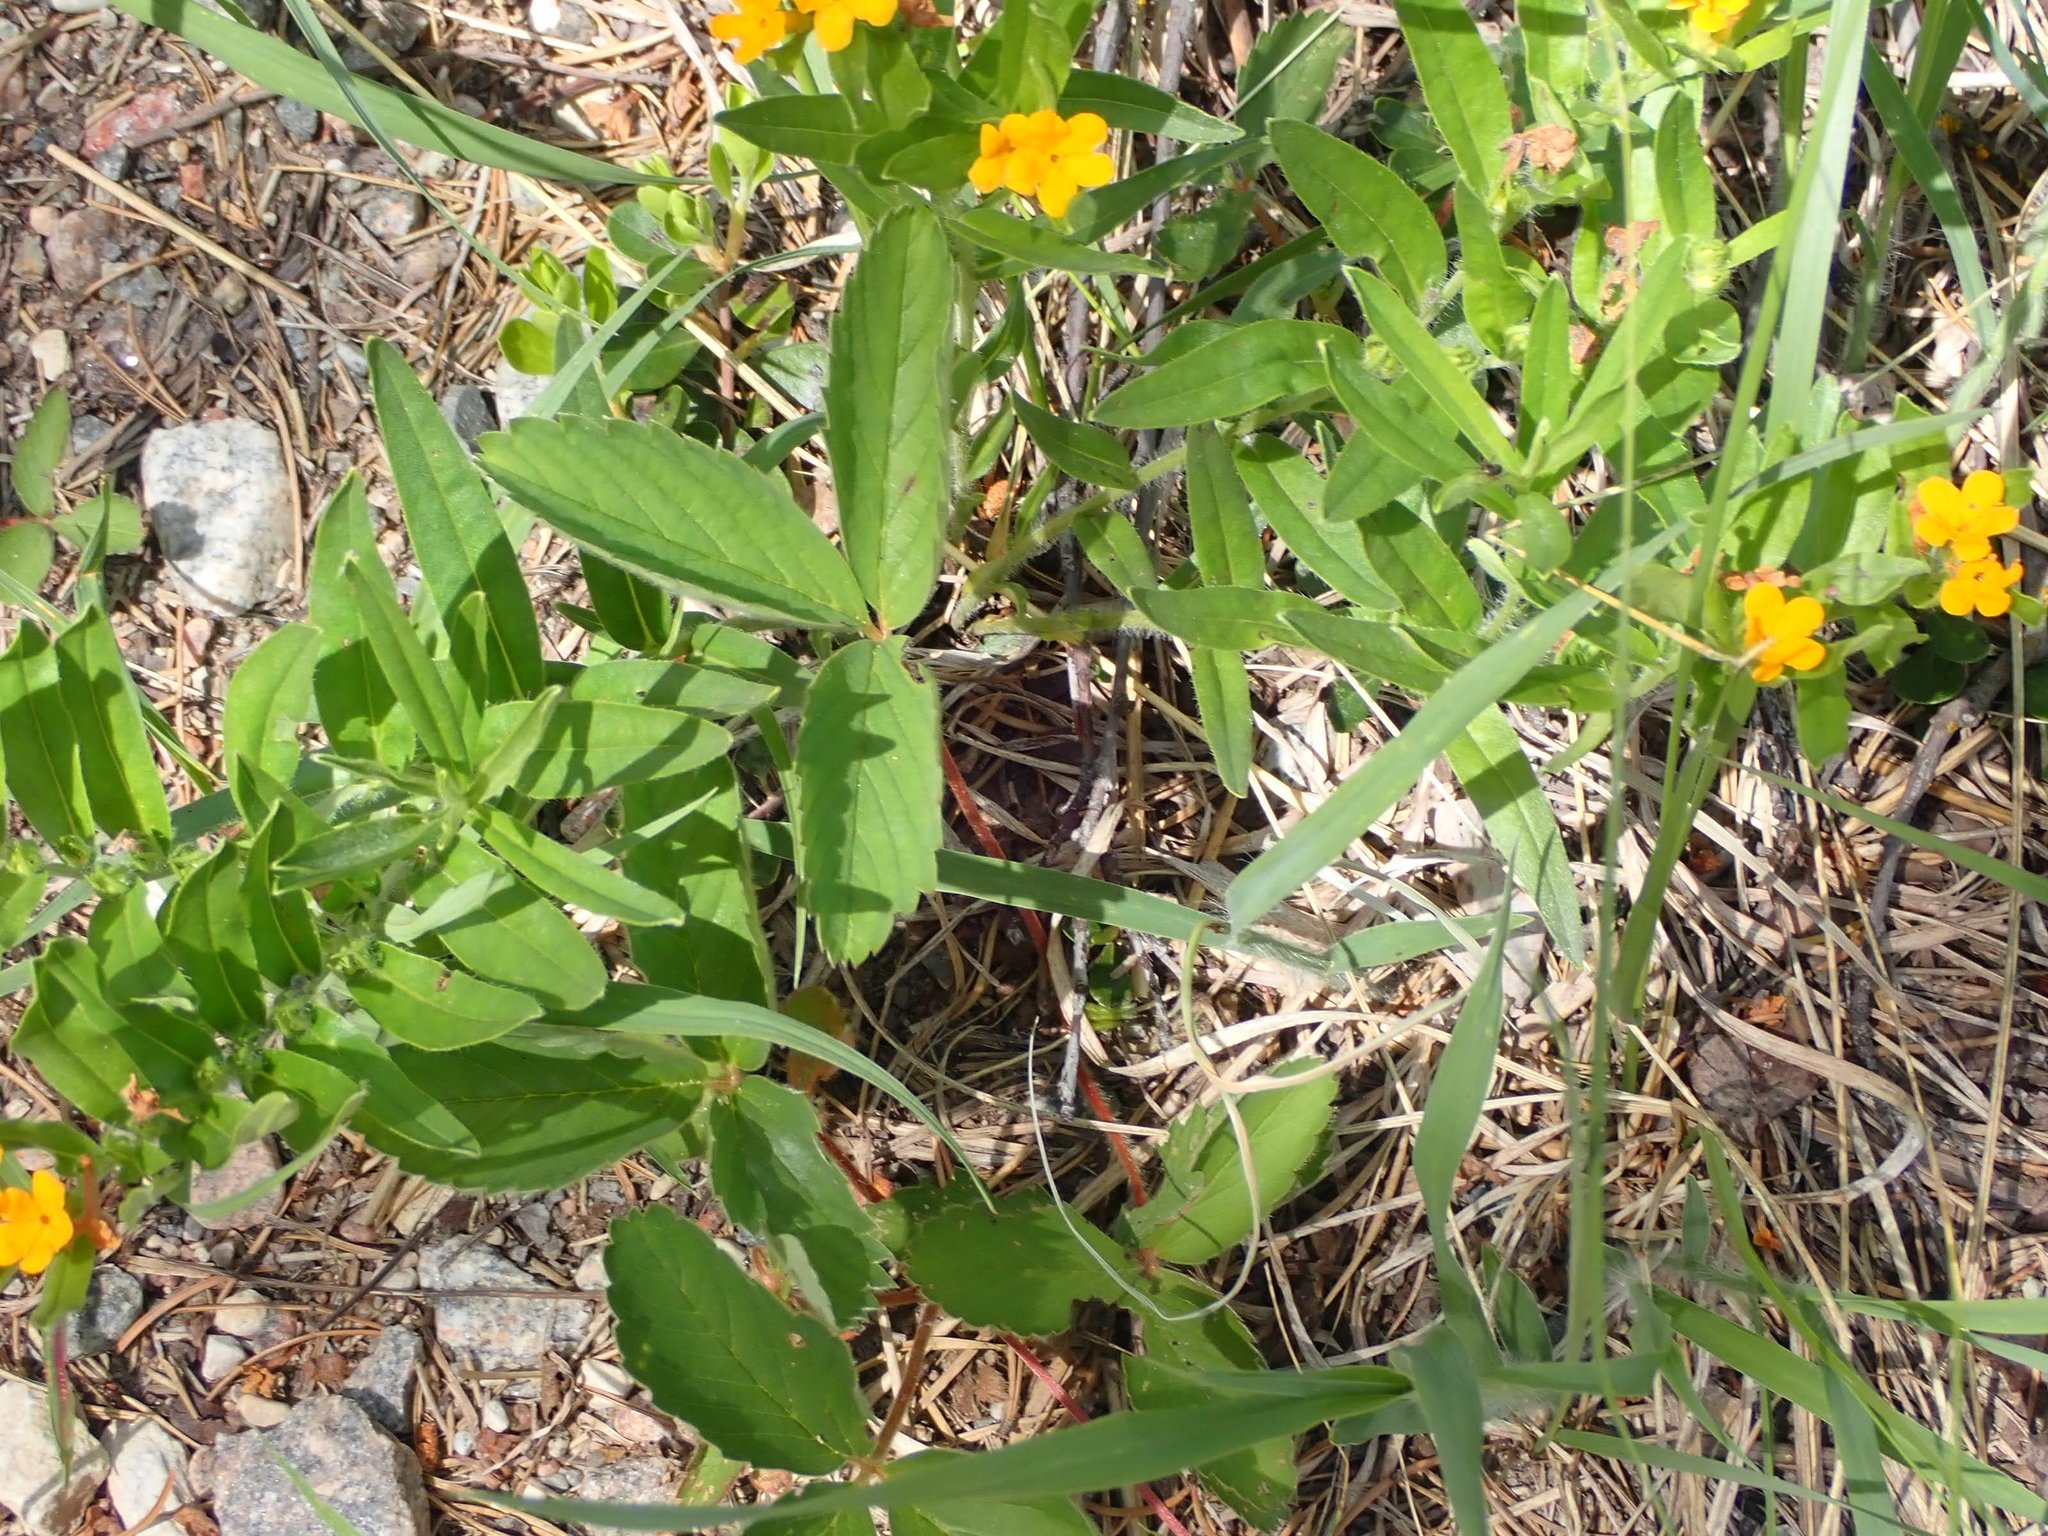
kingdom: Plantae
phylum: Tracheophyta
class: Magnoliopsida
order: Boraginales
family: Boraginaceae
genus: Lithospermum
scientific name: Lithospermum canescens
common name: Hoary puccoon
